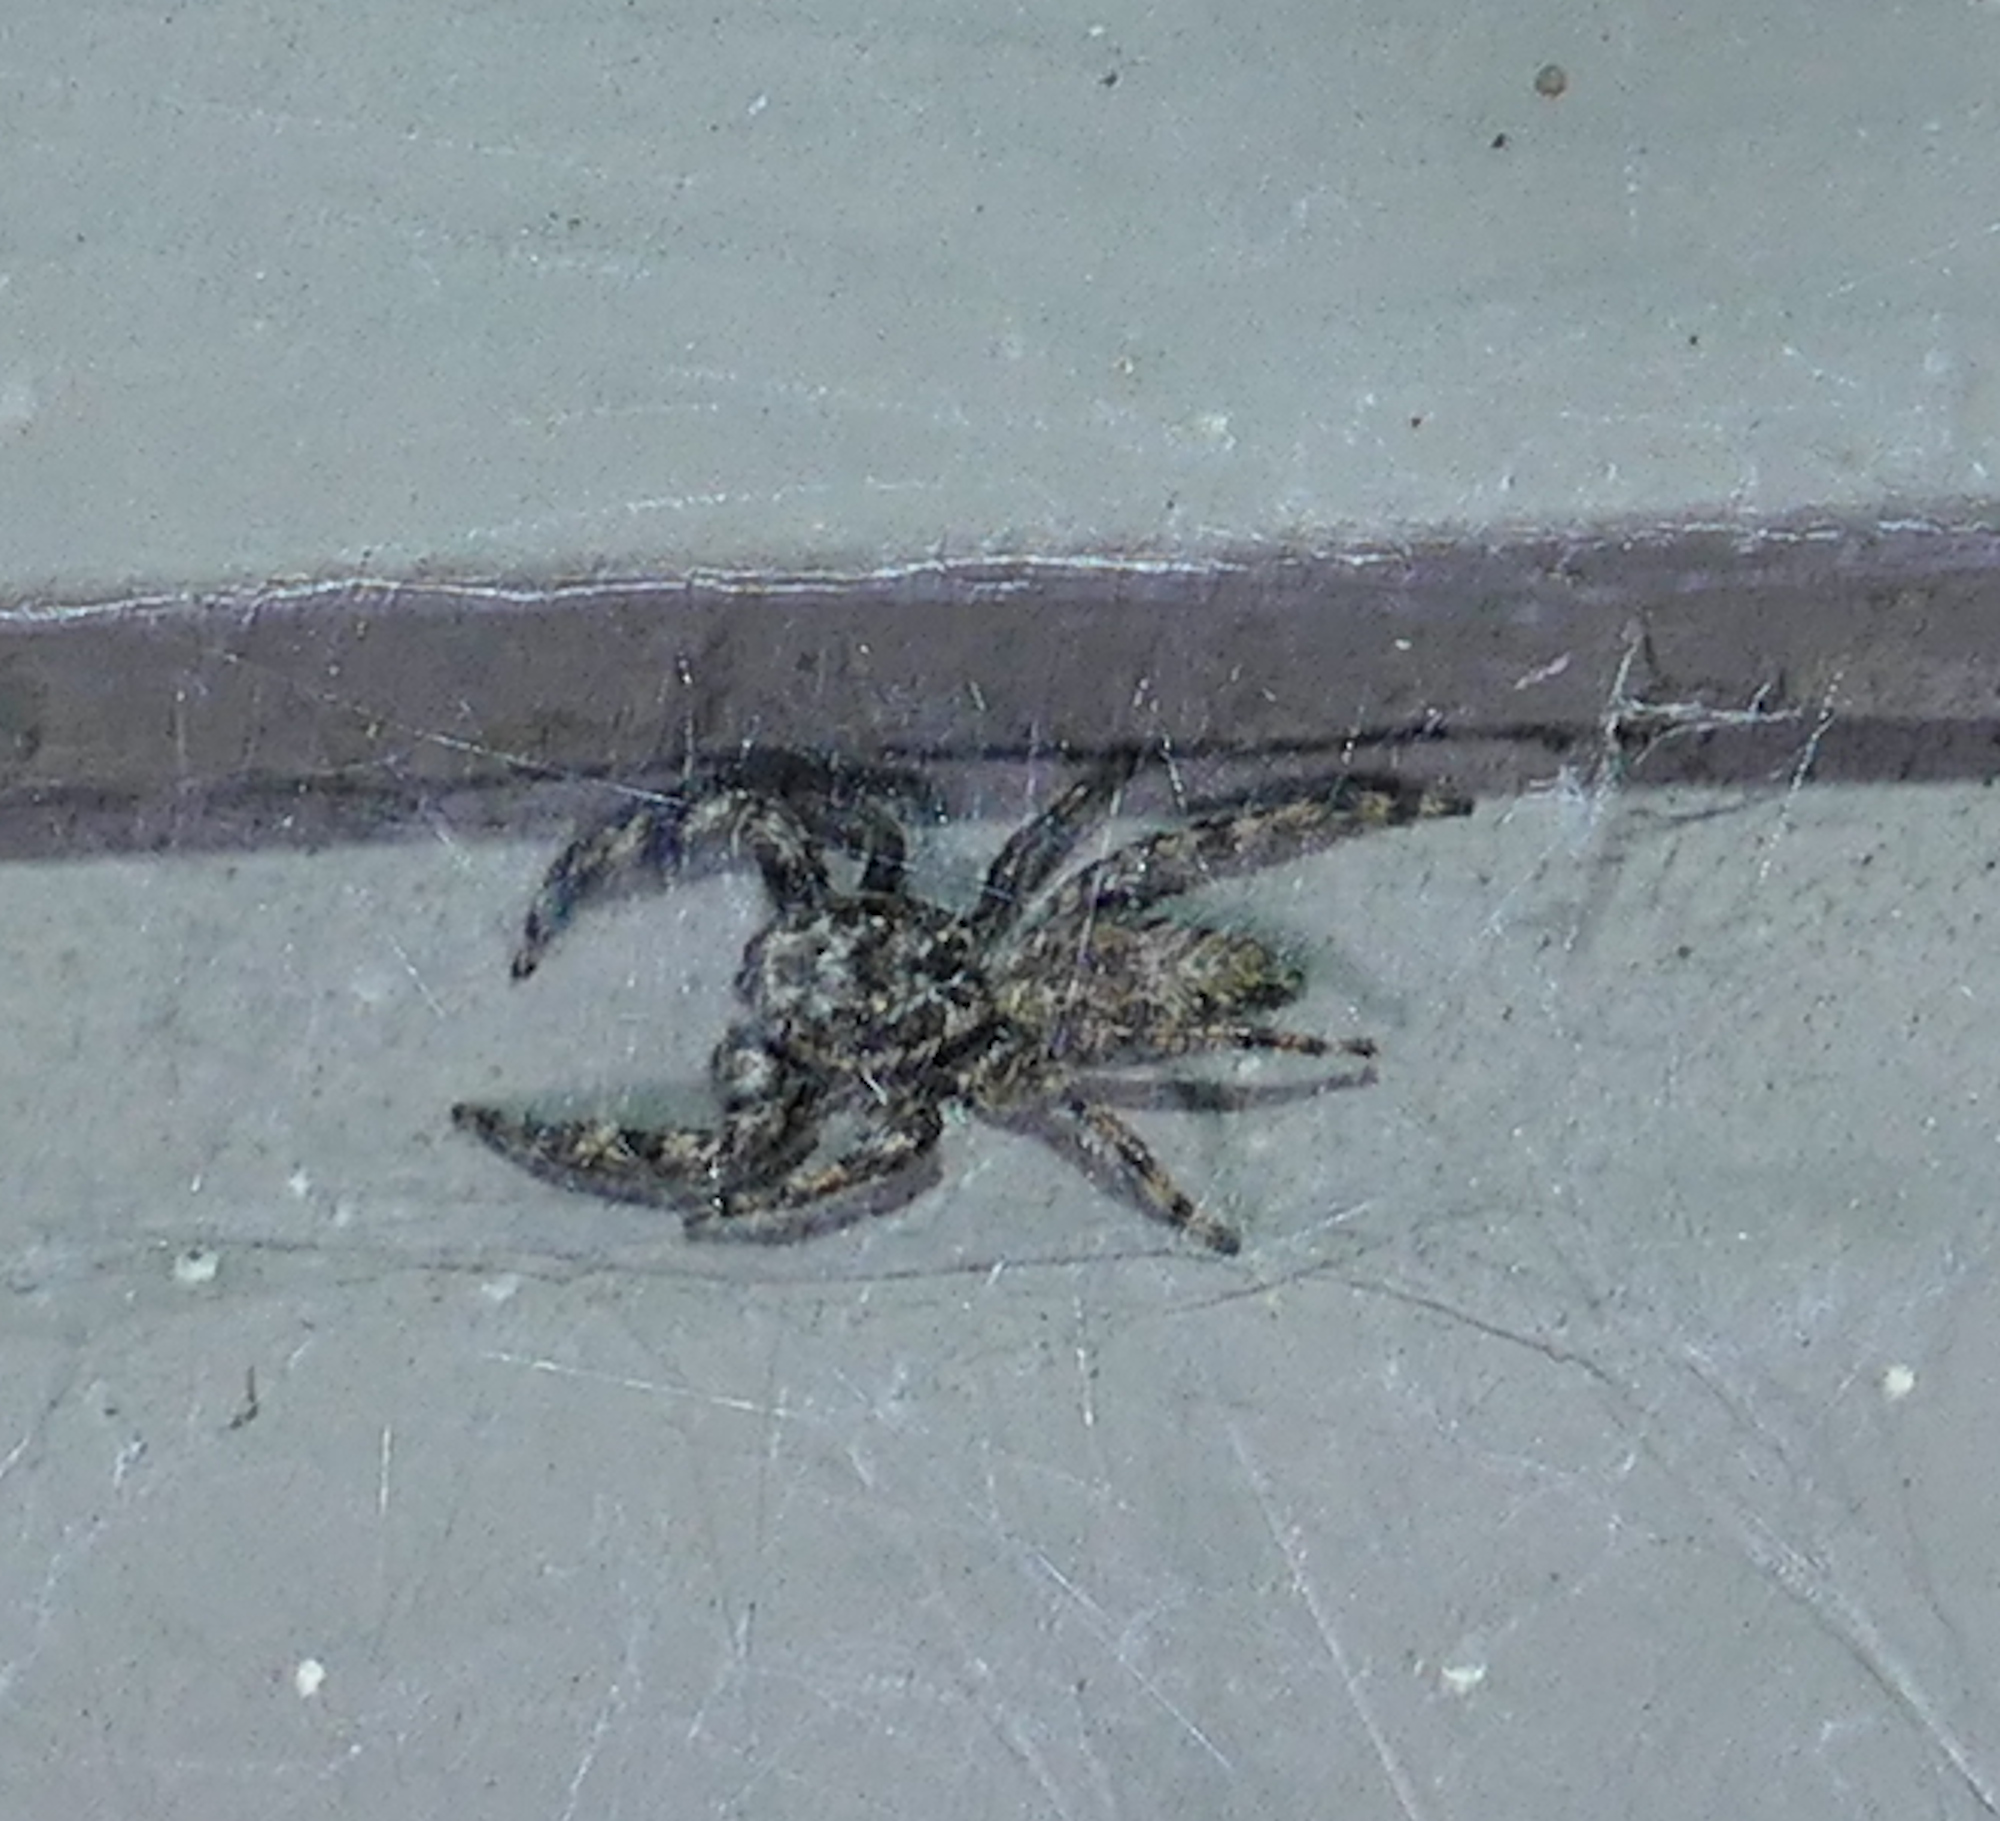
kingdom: Animalia
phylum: Arthropoda
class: Arachnida
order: Araneae
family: Salticidae
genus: Platycryptus
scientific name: Platycryptus undatus
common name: Tan jumping spider
